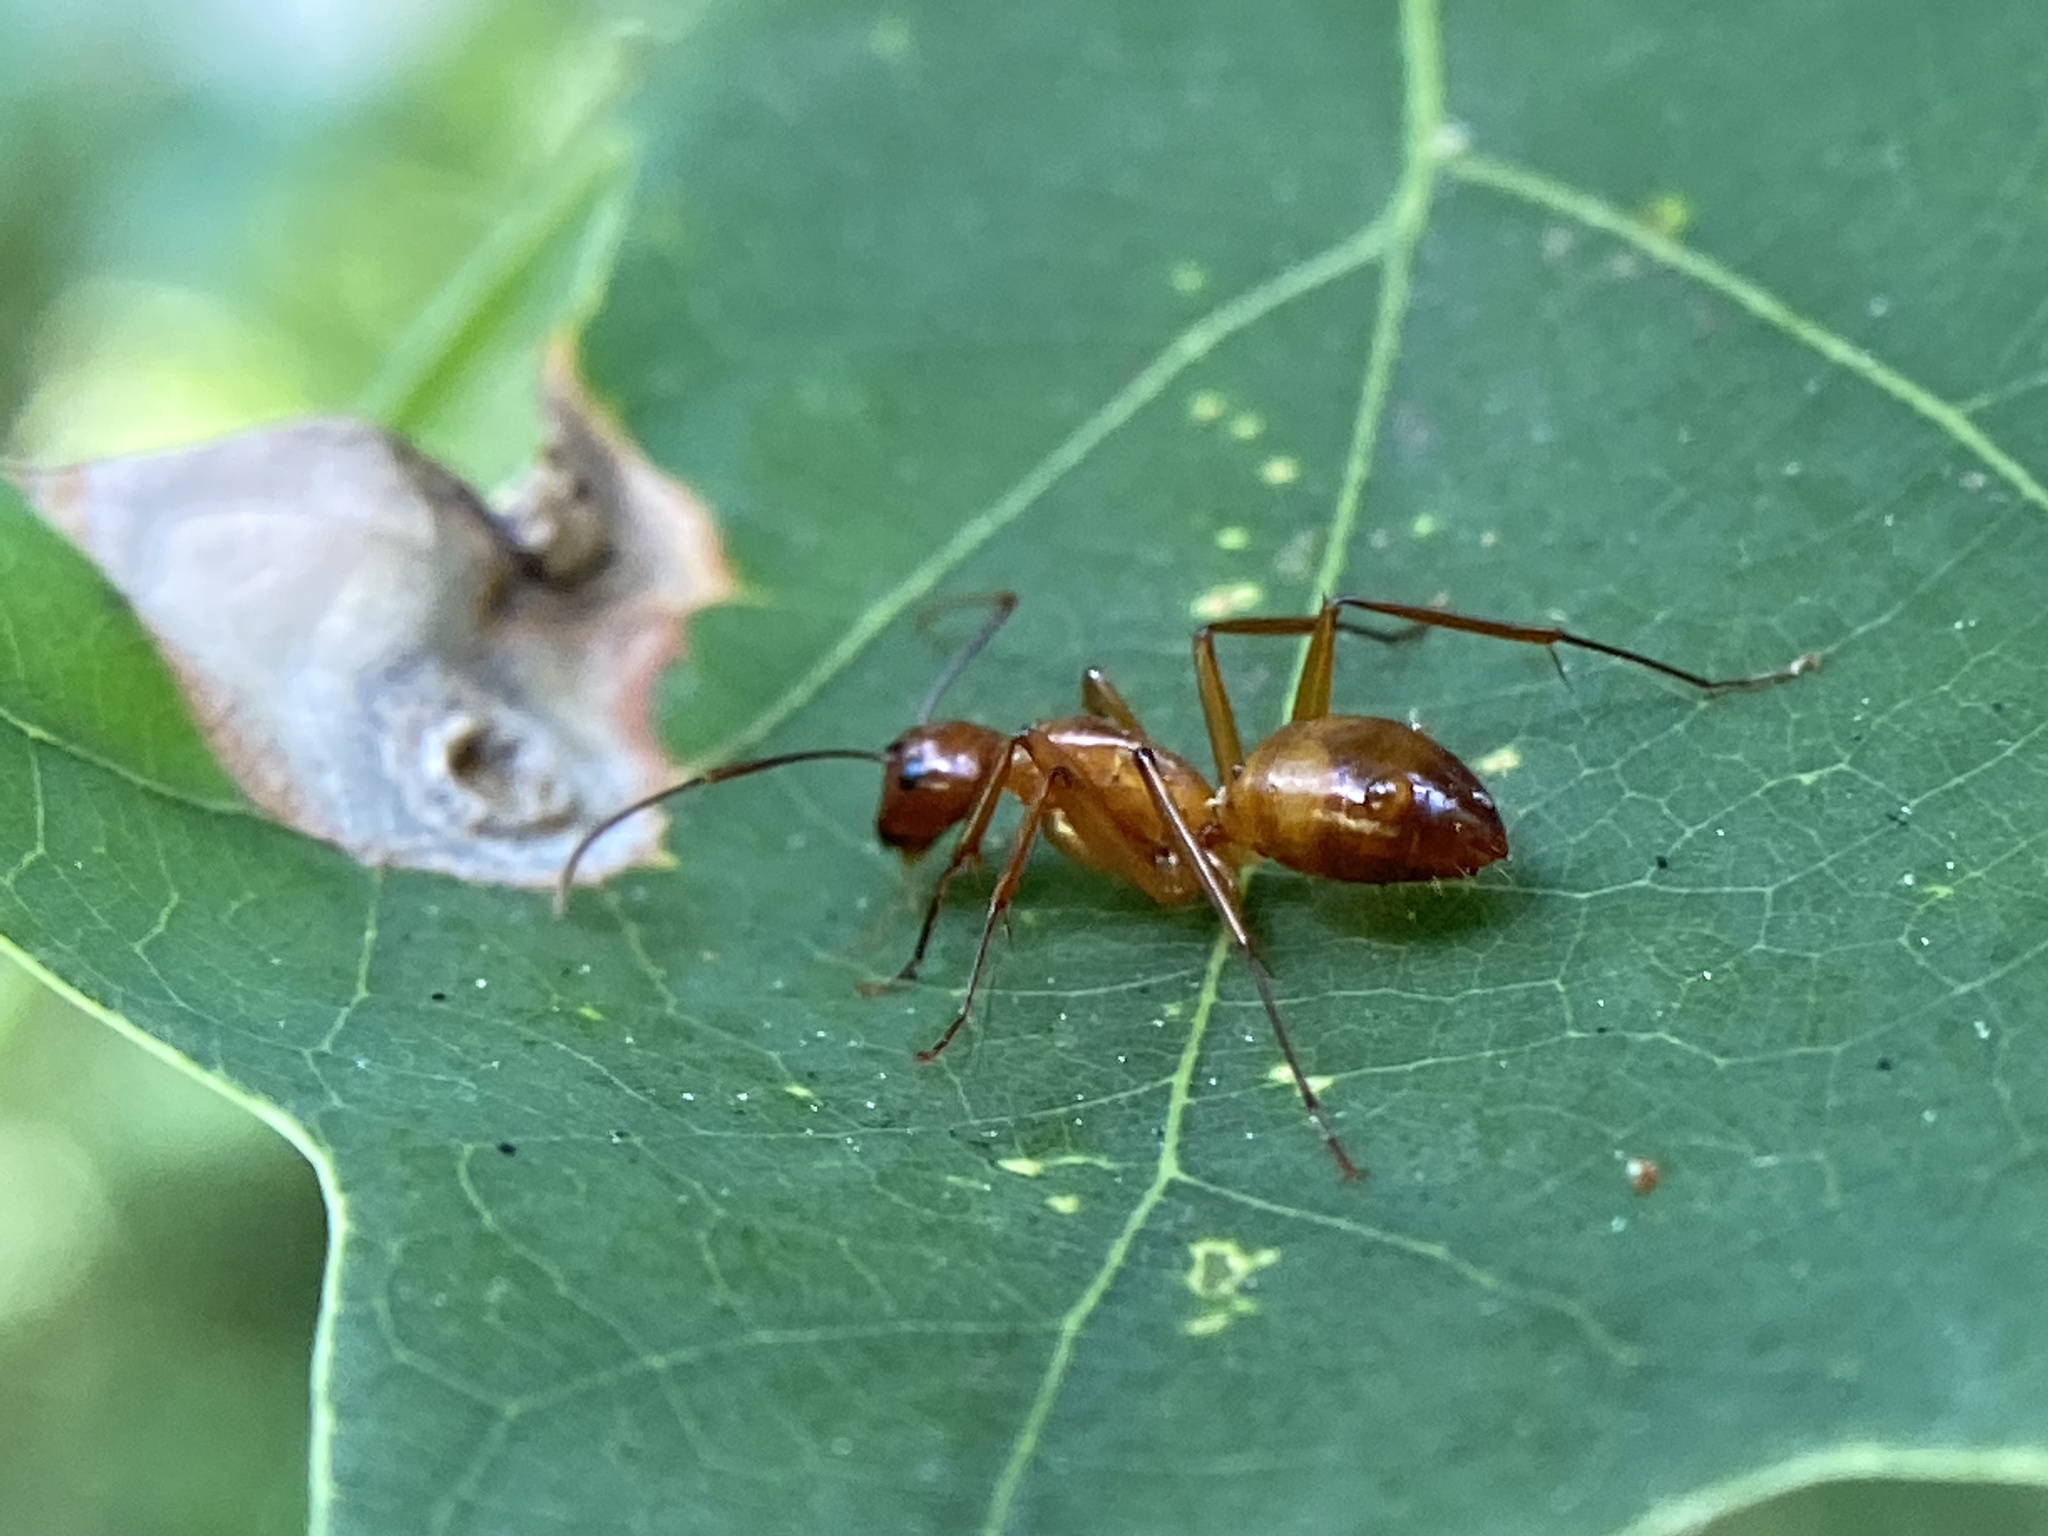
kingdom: Animalia
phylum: Arthropoda
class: Insecta
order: Hymenoptera
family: Formicidae
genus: Camponotus
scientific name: Camponotus castaneus
